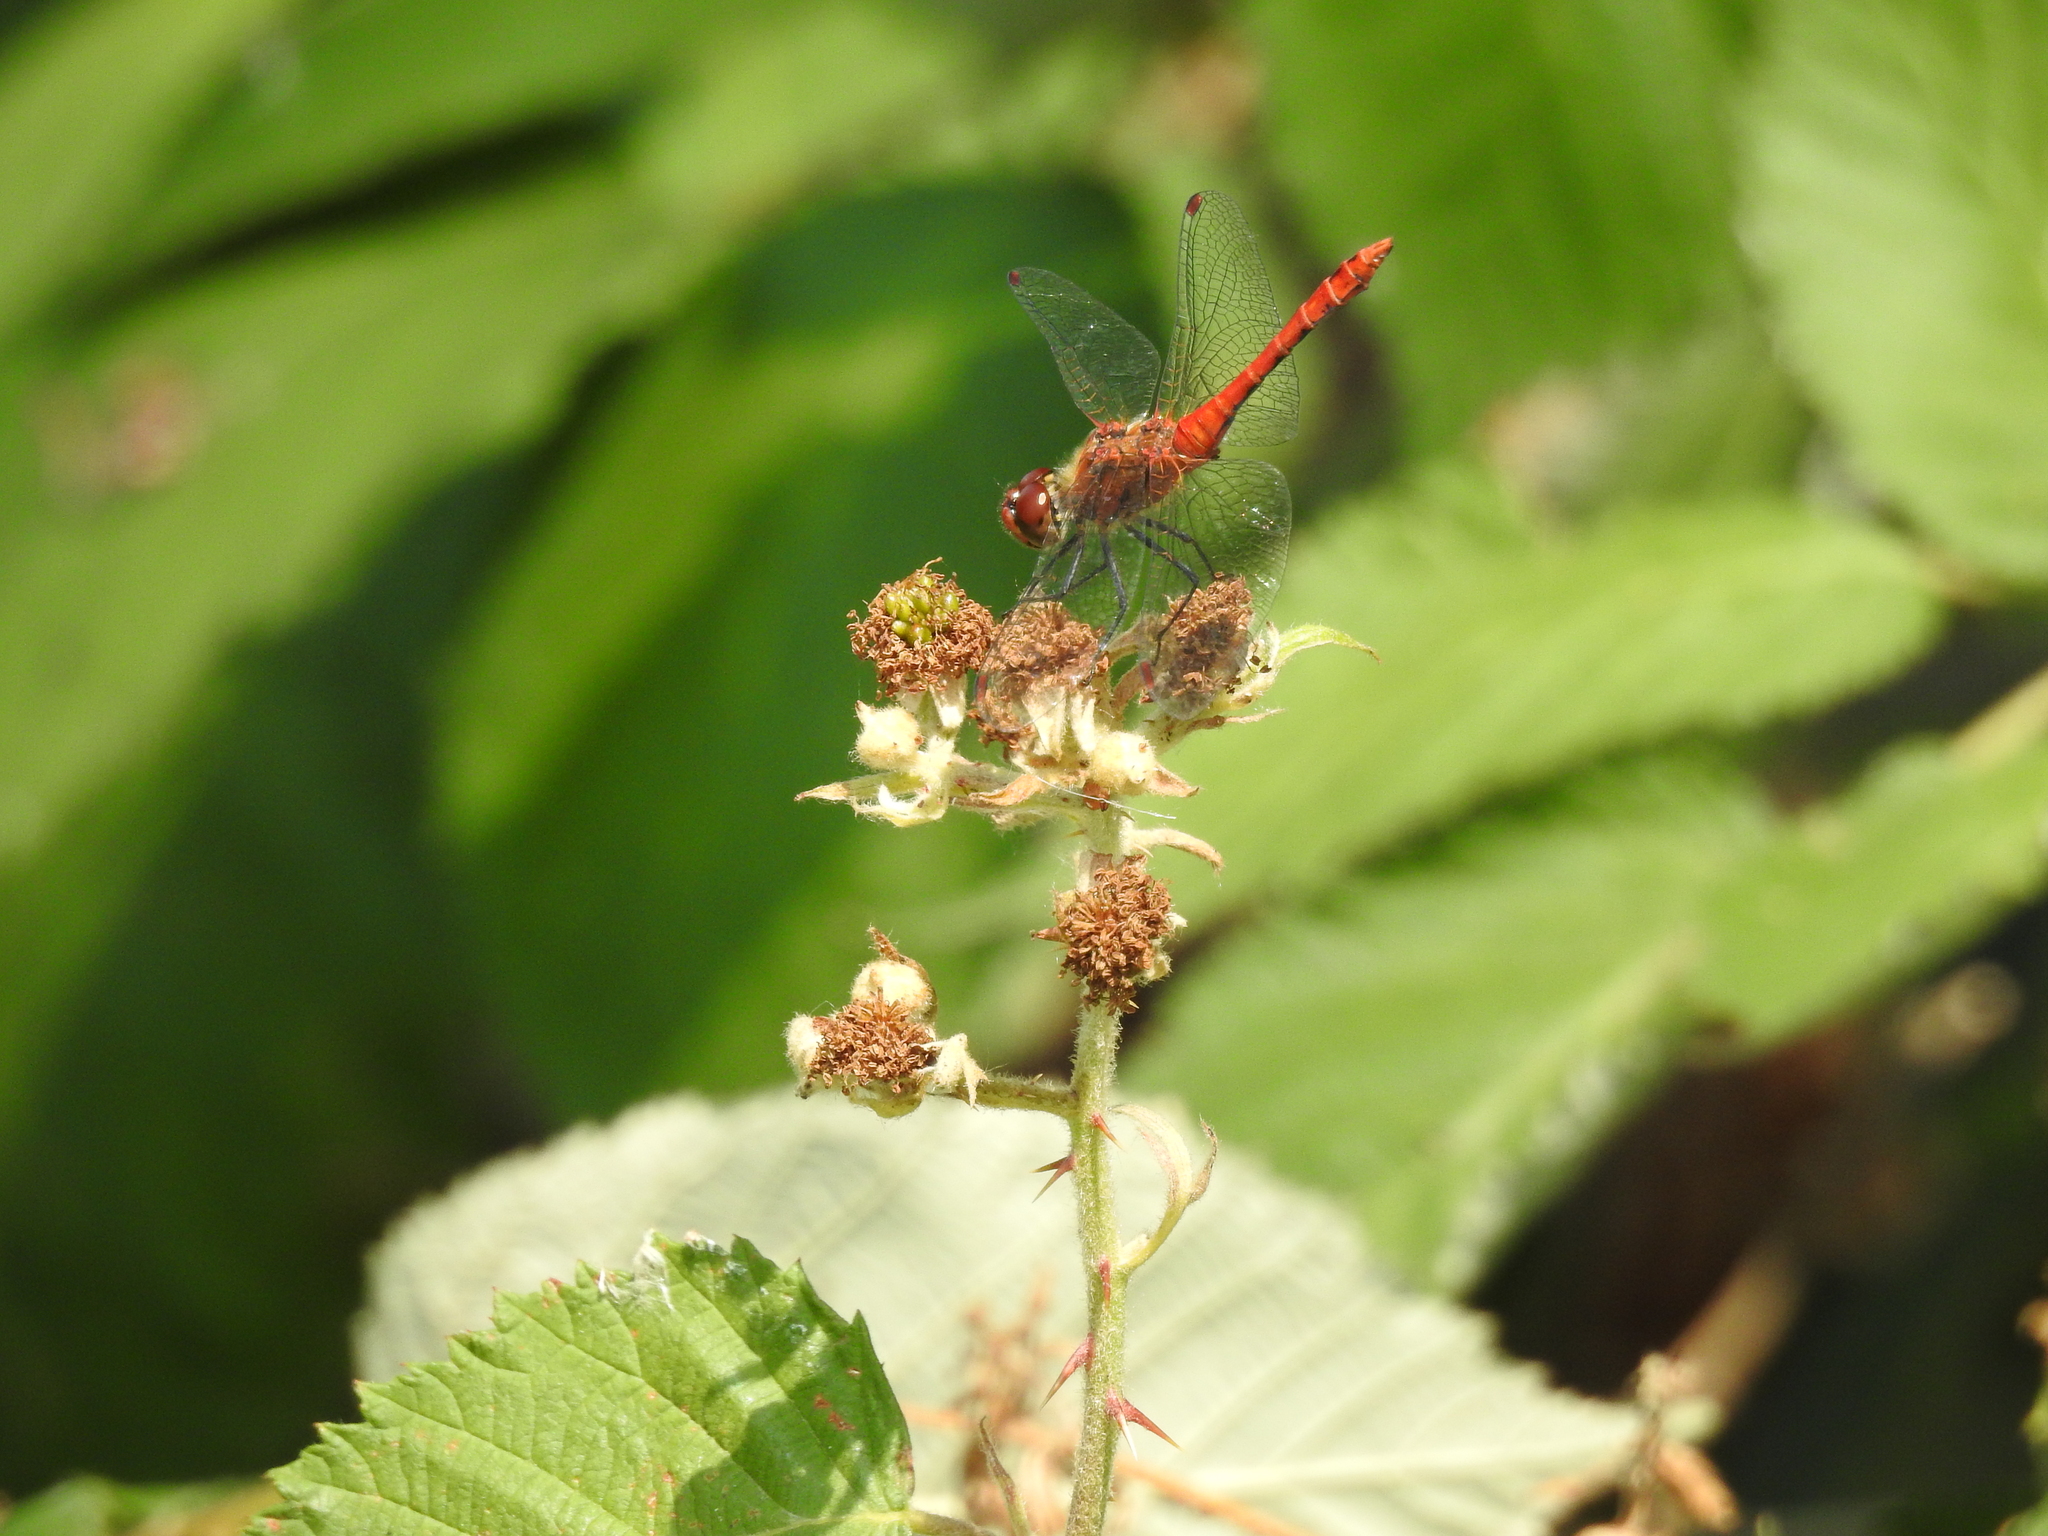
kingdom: Animalia
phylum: Arthropoda
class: Insecta
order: Odonata
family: Libellulidae
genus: Sympetrum
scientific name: Sympetrum sanguineum
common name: Ruddy darter
